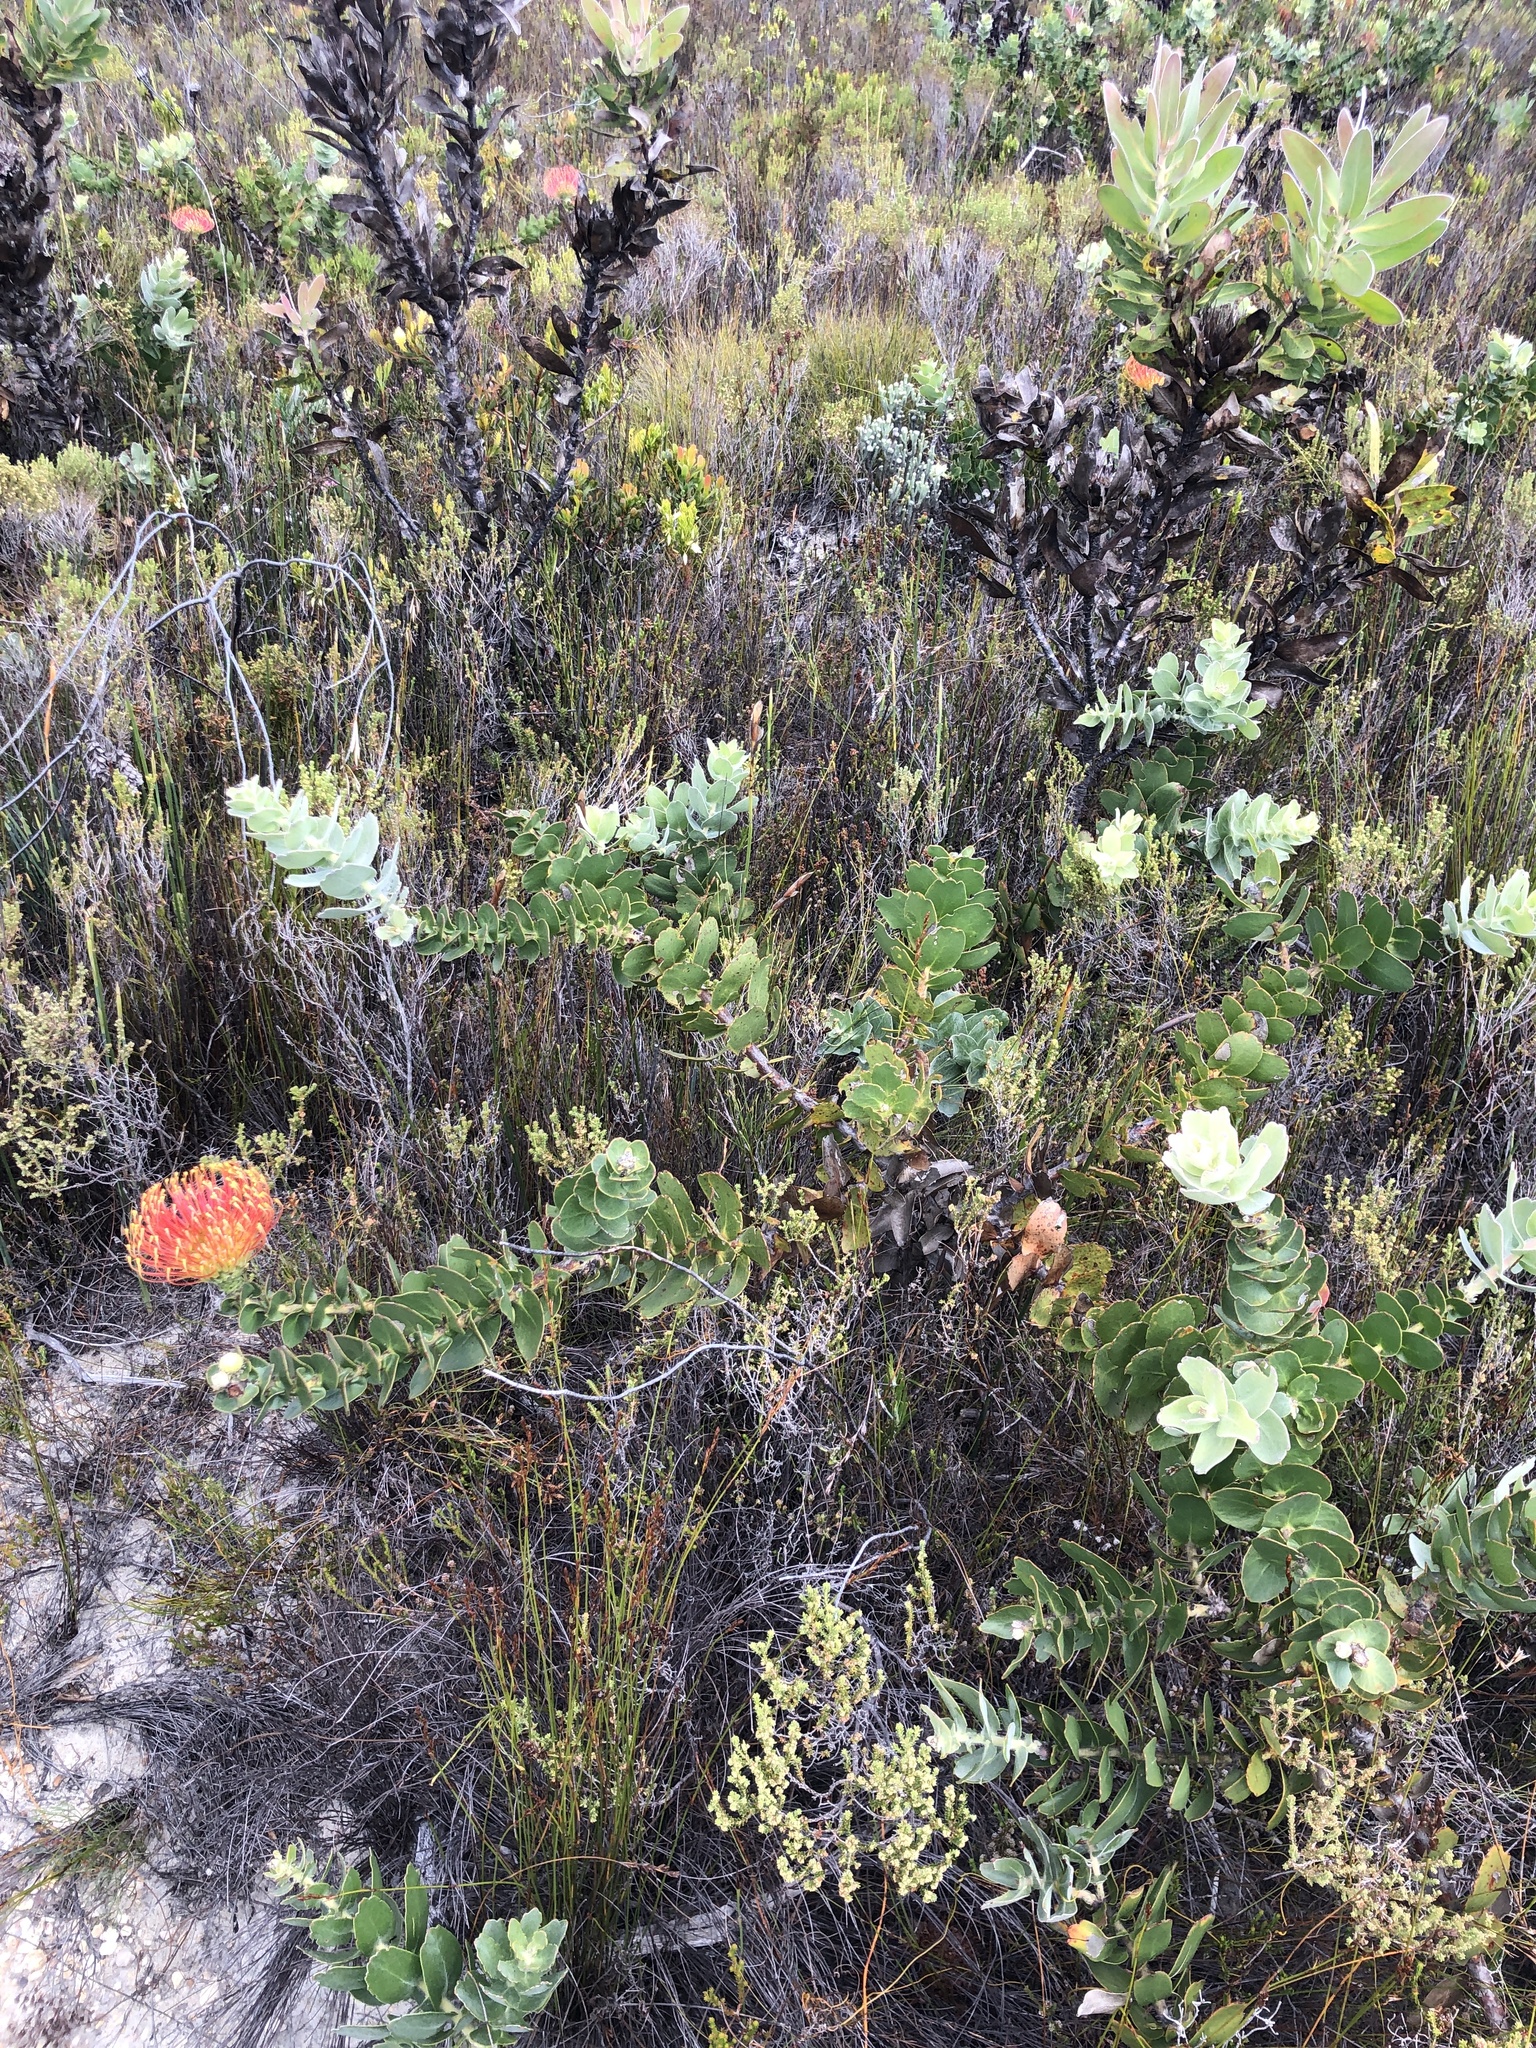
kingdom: Plantae
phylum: Tracheophyta
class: Magnoliopsida
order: Proteales
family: Proteaceae
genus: Leucospermum
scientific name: Leucospermum cordifolium
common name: Red pincushion-protea
